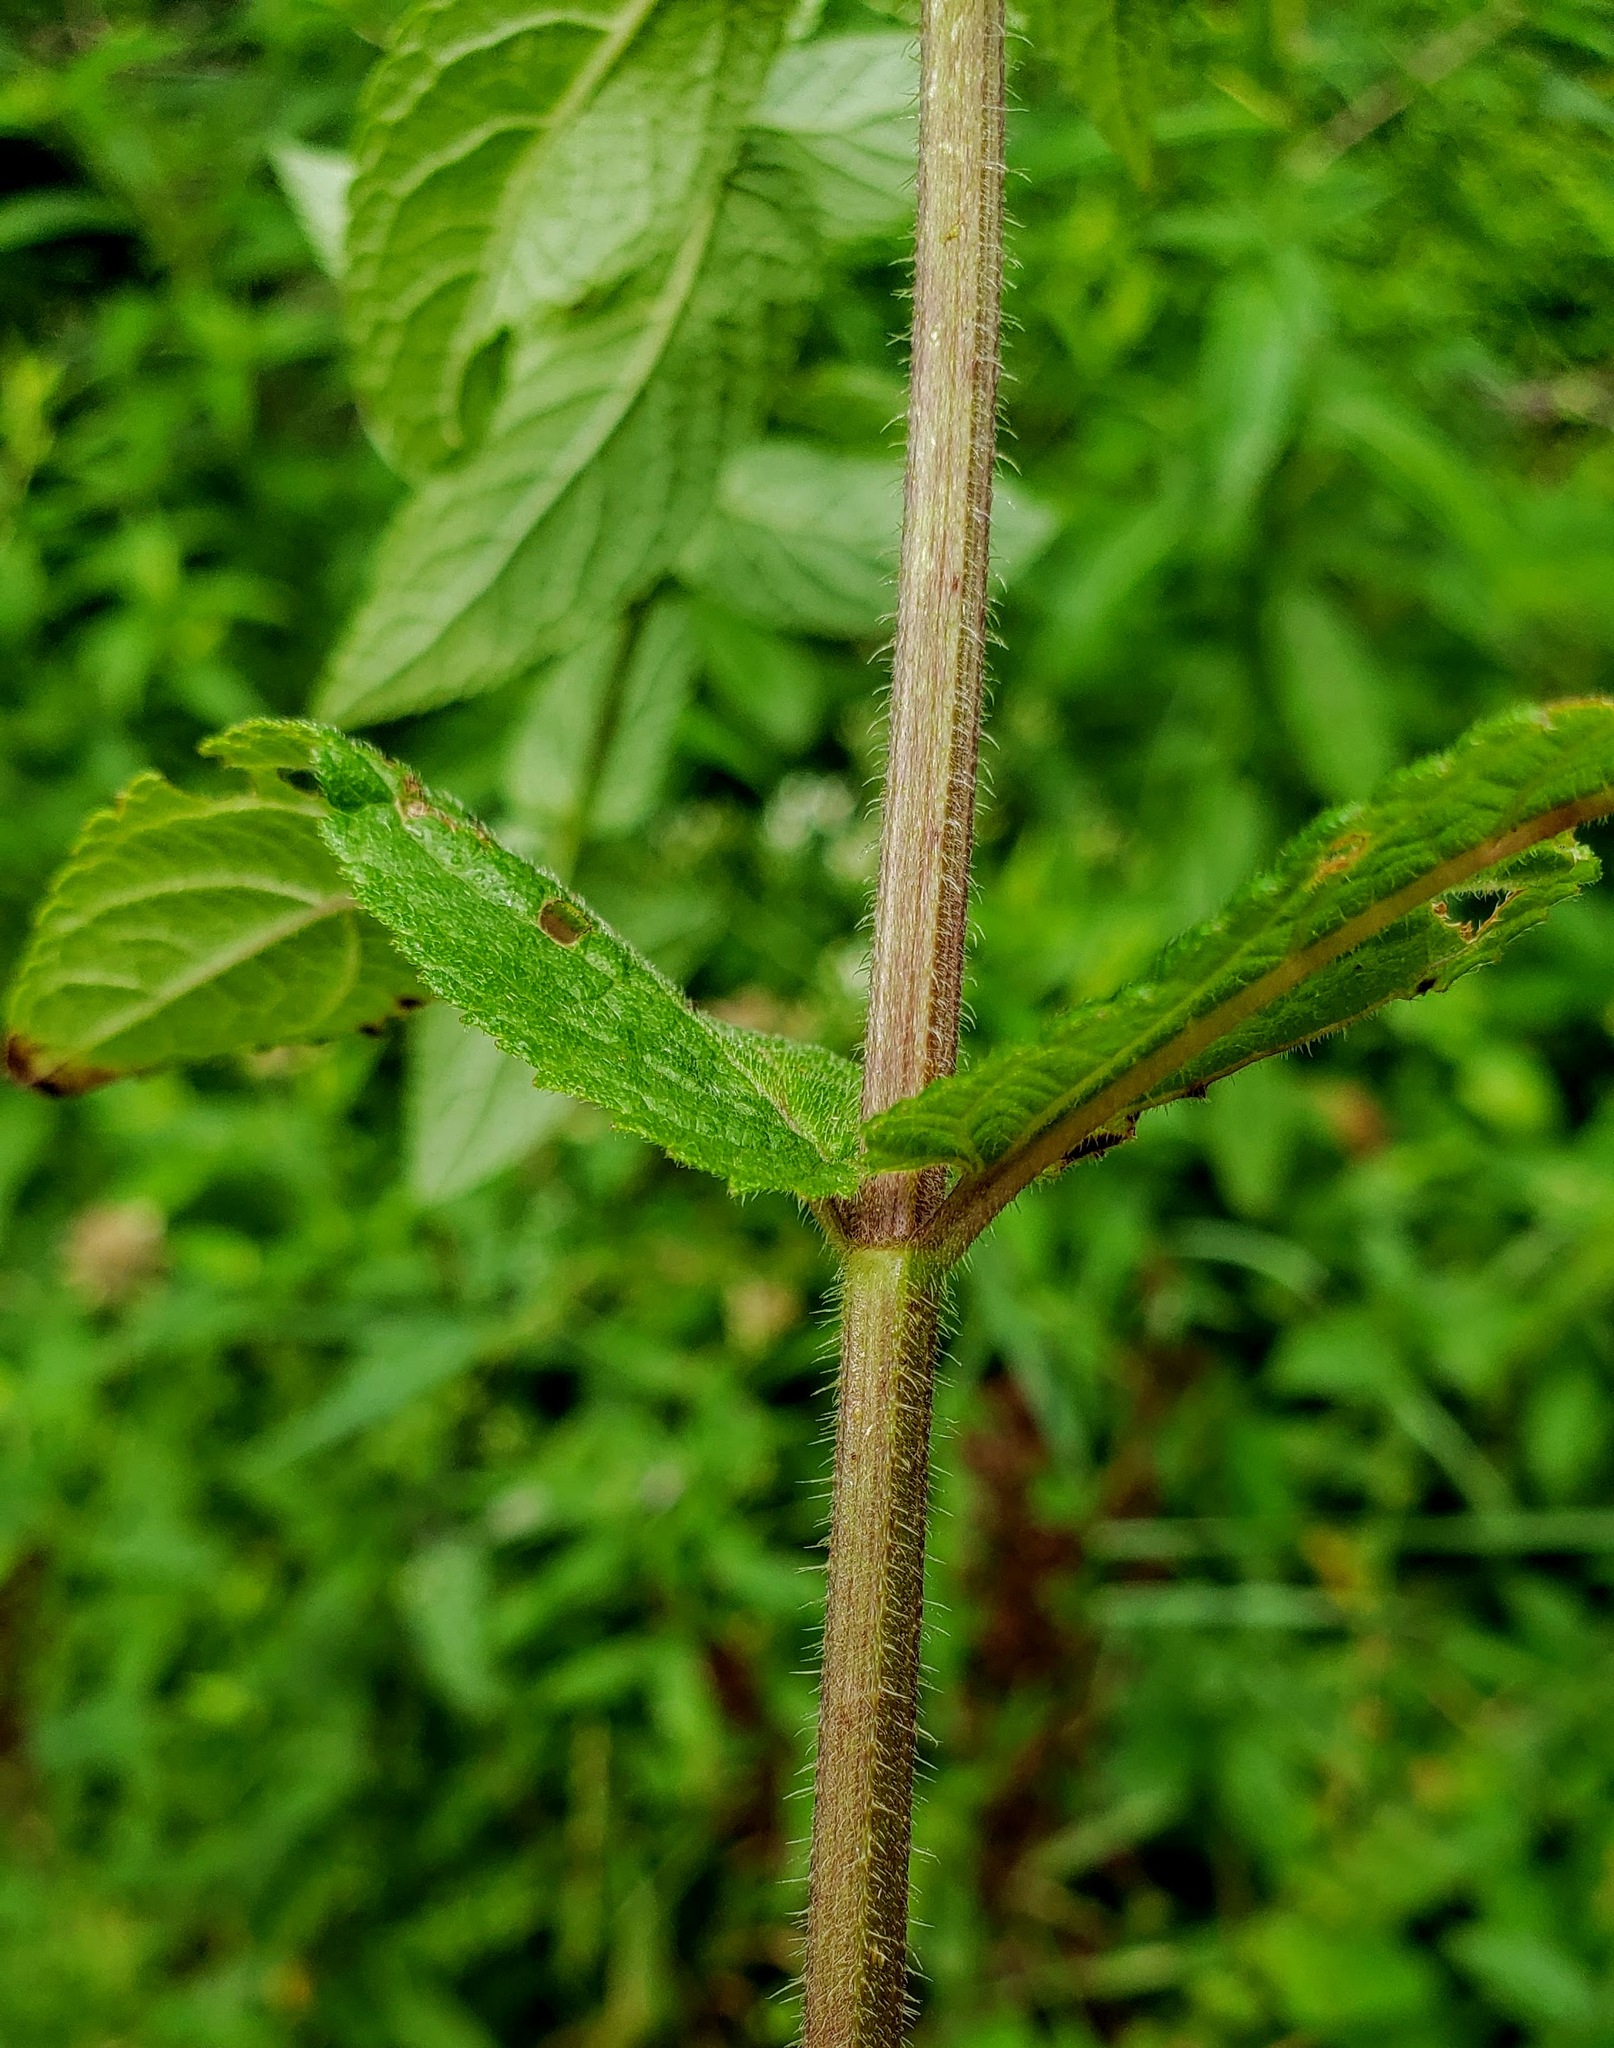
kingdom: Plantae
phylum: Tracheophyta
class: Magnoliopsida
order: Lamiales
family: Lamiaceae
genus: Stachys
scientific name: Stachys palustris
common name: Marsh woundwort
